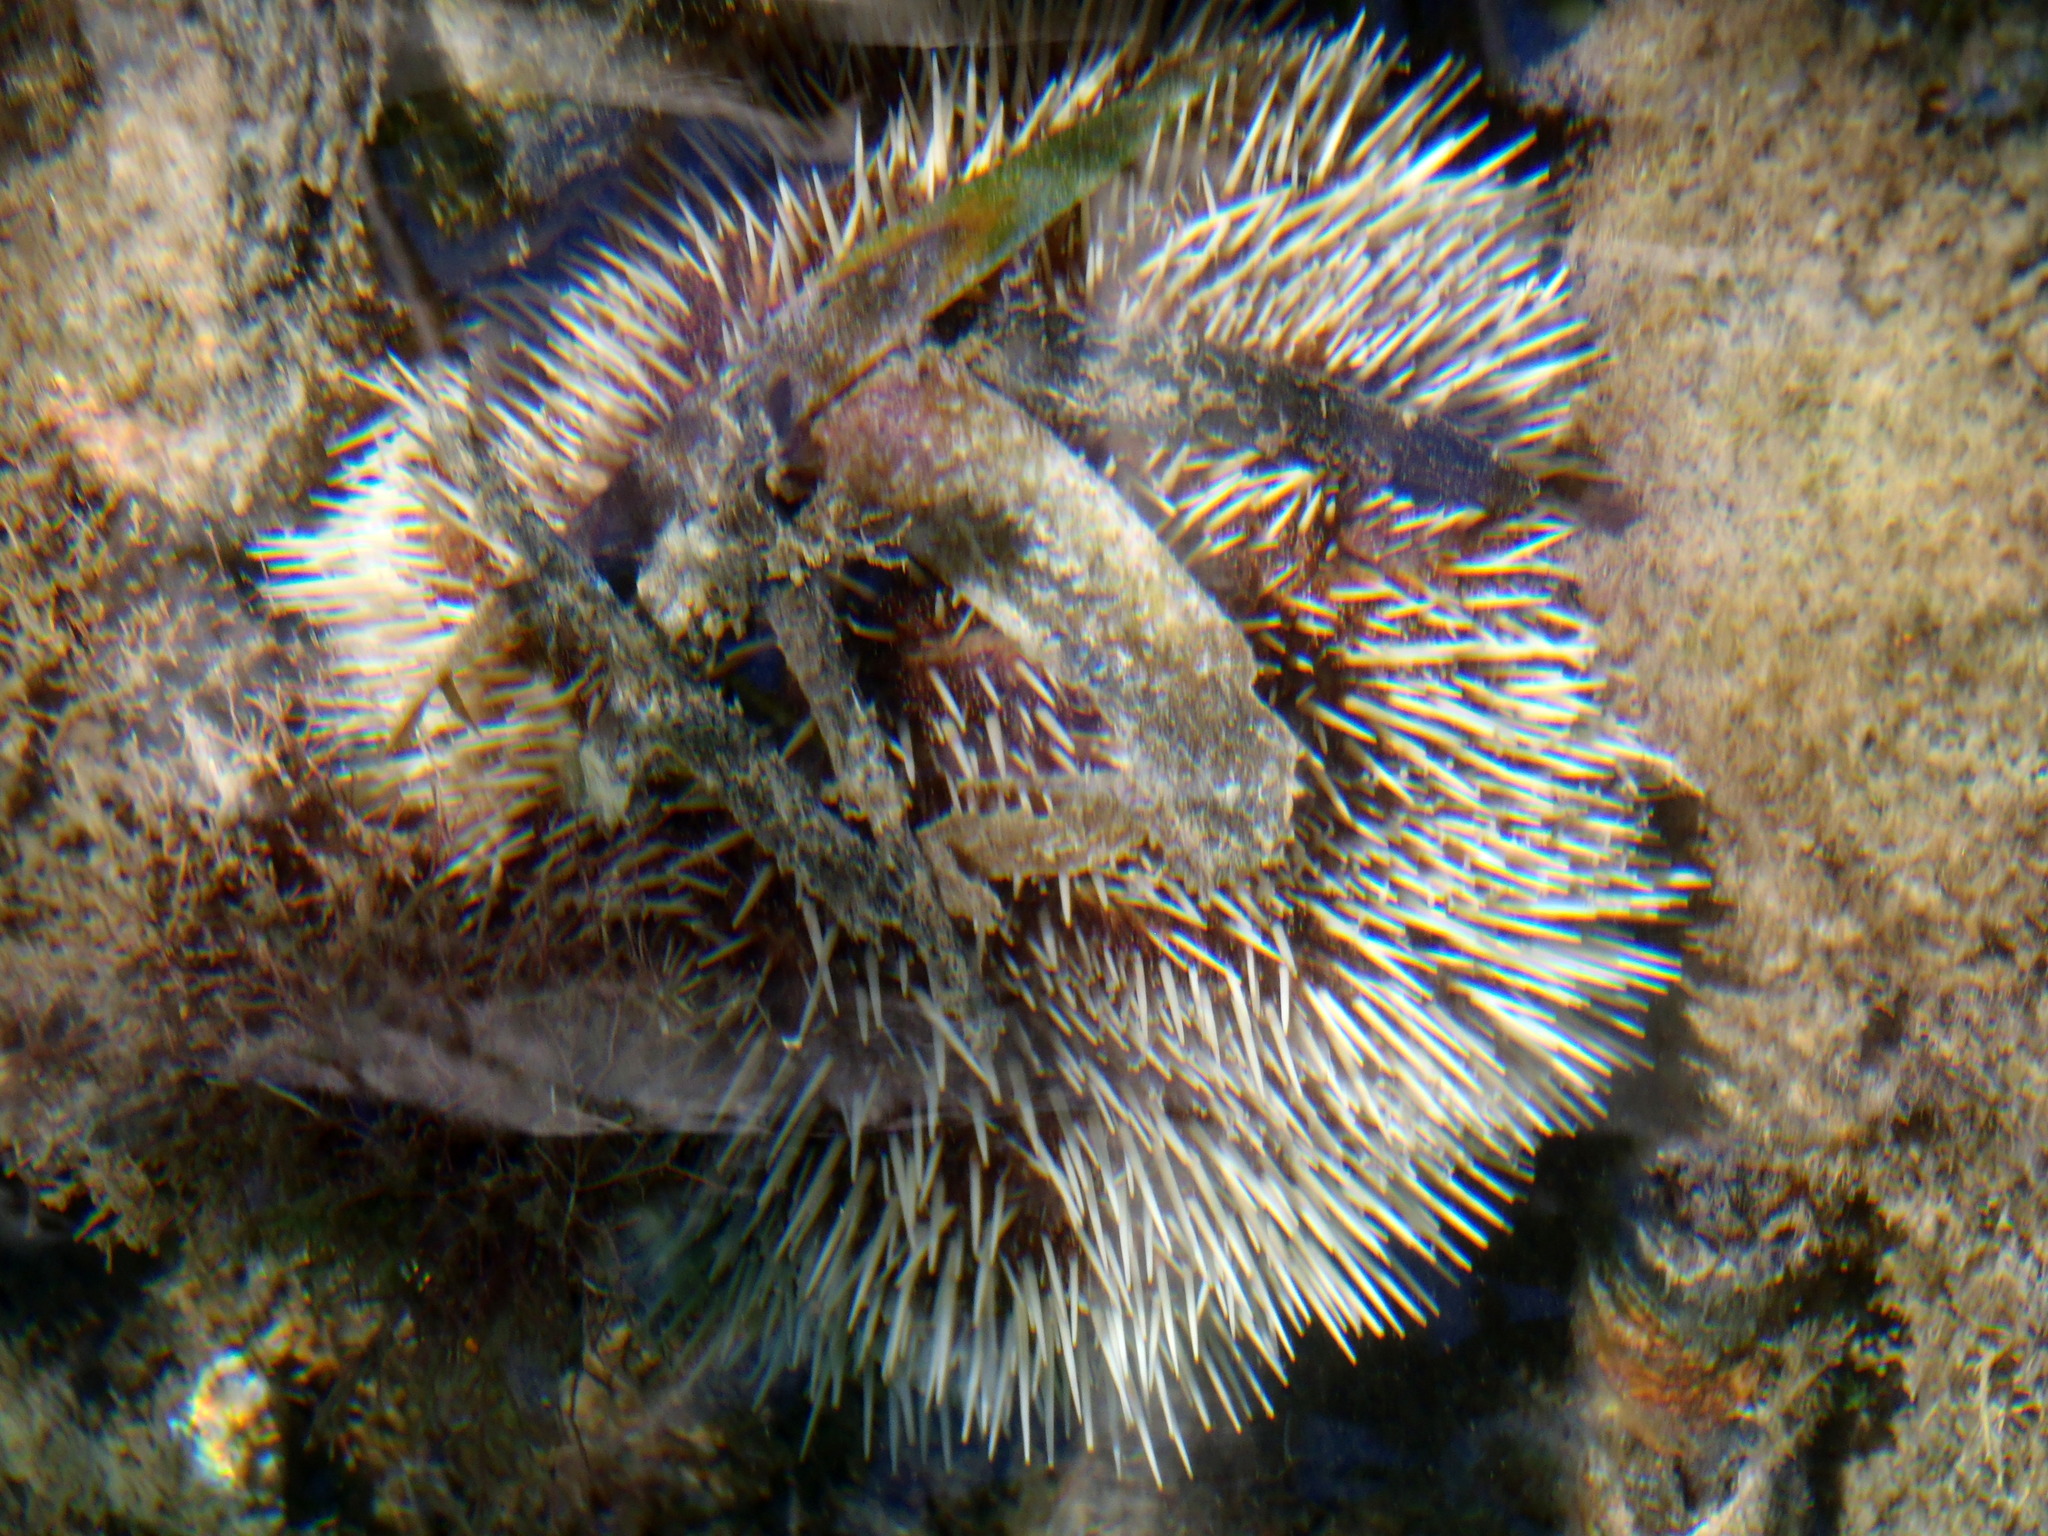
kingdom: Animalia
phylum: Echinodermata
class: Echinoidea
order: Camarodonta
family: Toxopneustidae
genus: Tripneustes
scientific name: Tripneustes ventricosus
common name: West indian sea egg
